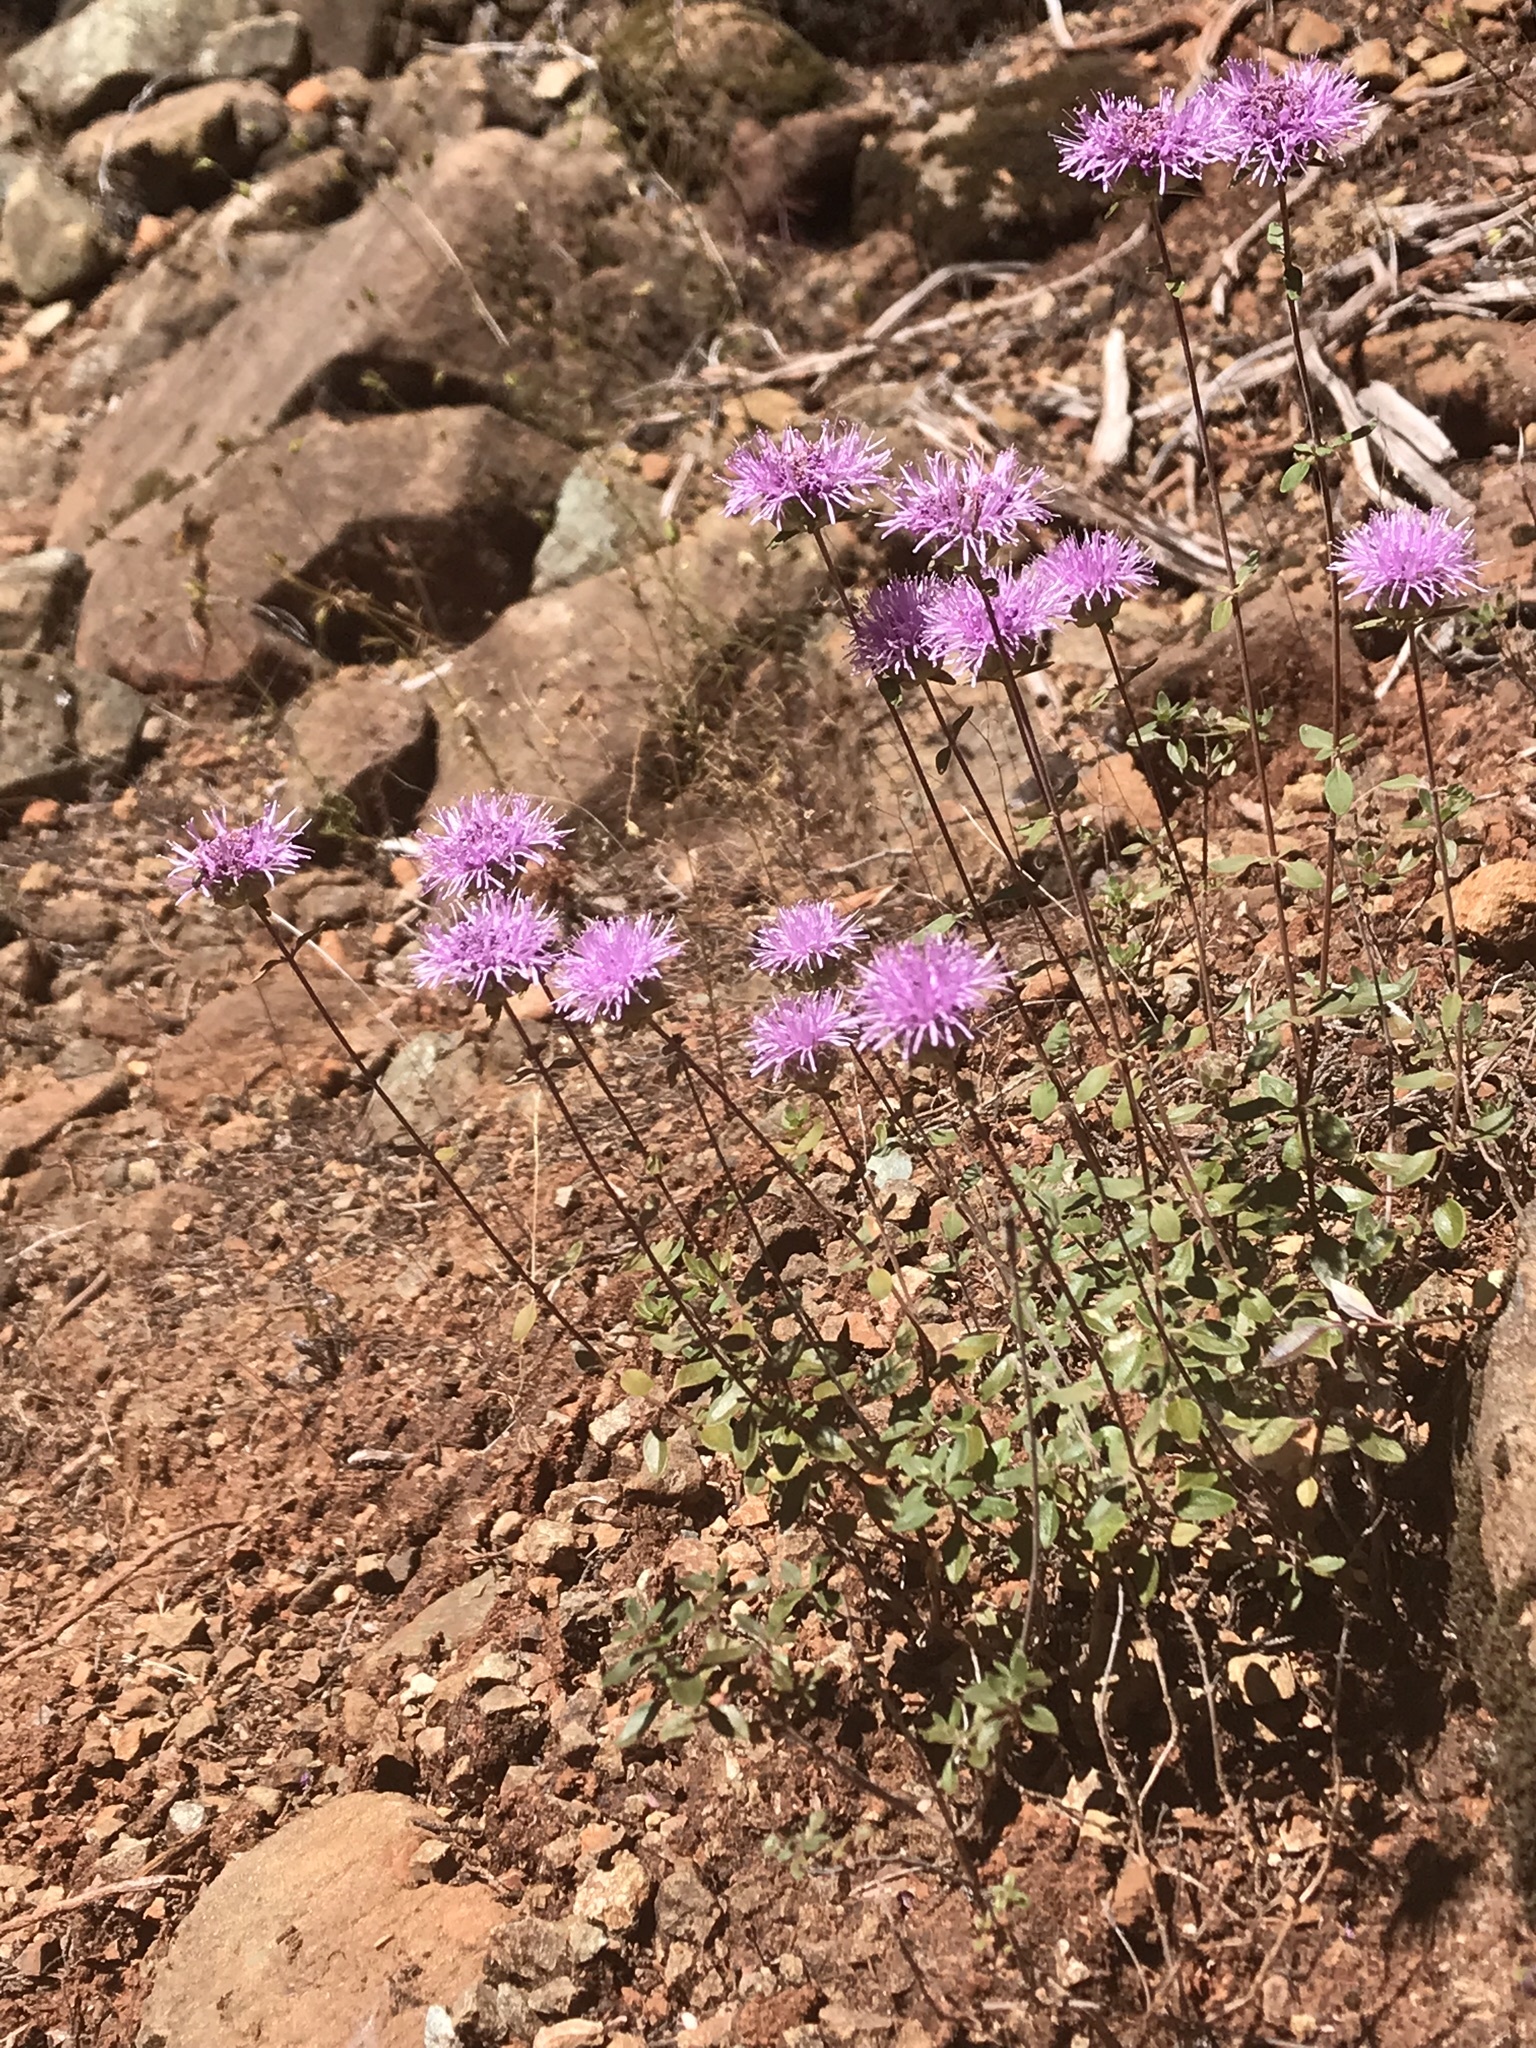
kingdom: Plantae
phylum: Tracheophyta
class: Magnoliopsida
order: Lamiales
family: Lamiaceae
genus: Monardella
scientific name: Monardella viridis
